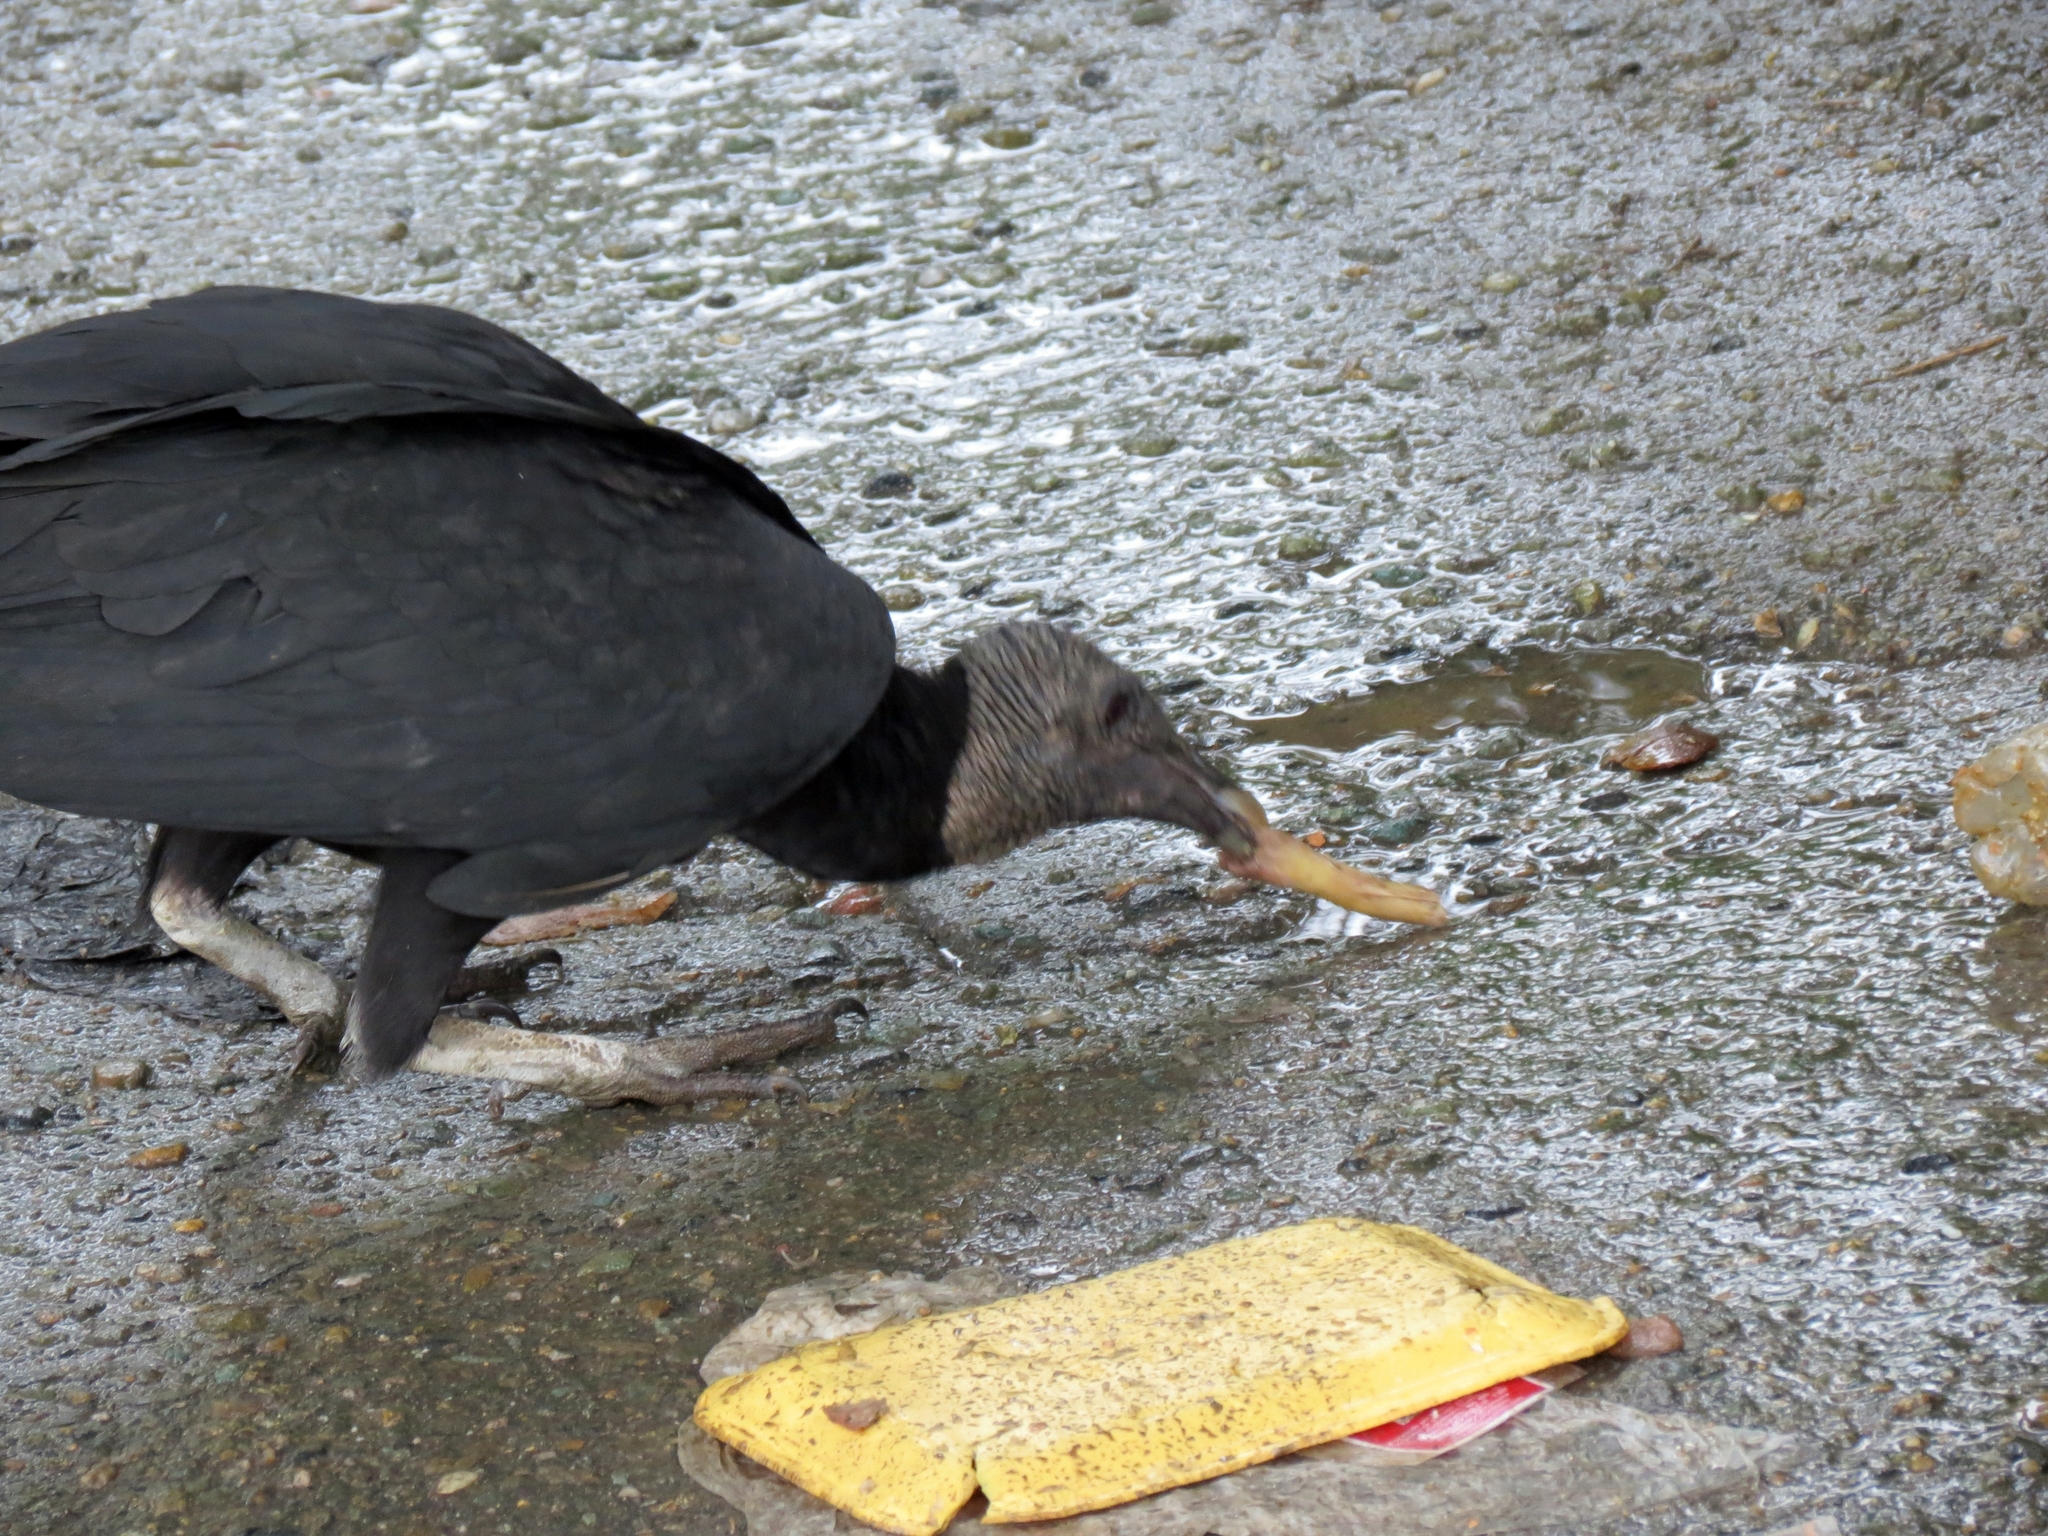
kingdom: Animalia
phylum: Chordata
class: Aves
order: Accipitriformes
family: Cathartidae
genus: Coragyps
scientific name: Coragyps atratus
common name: Black vulture
